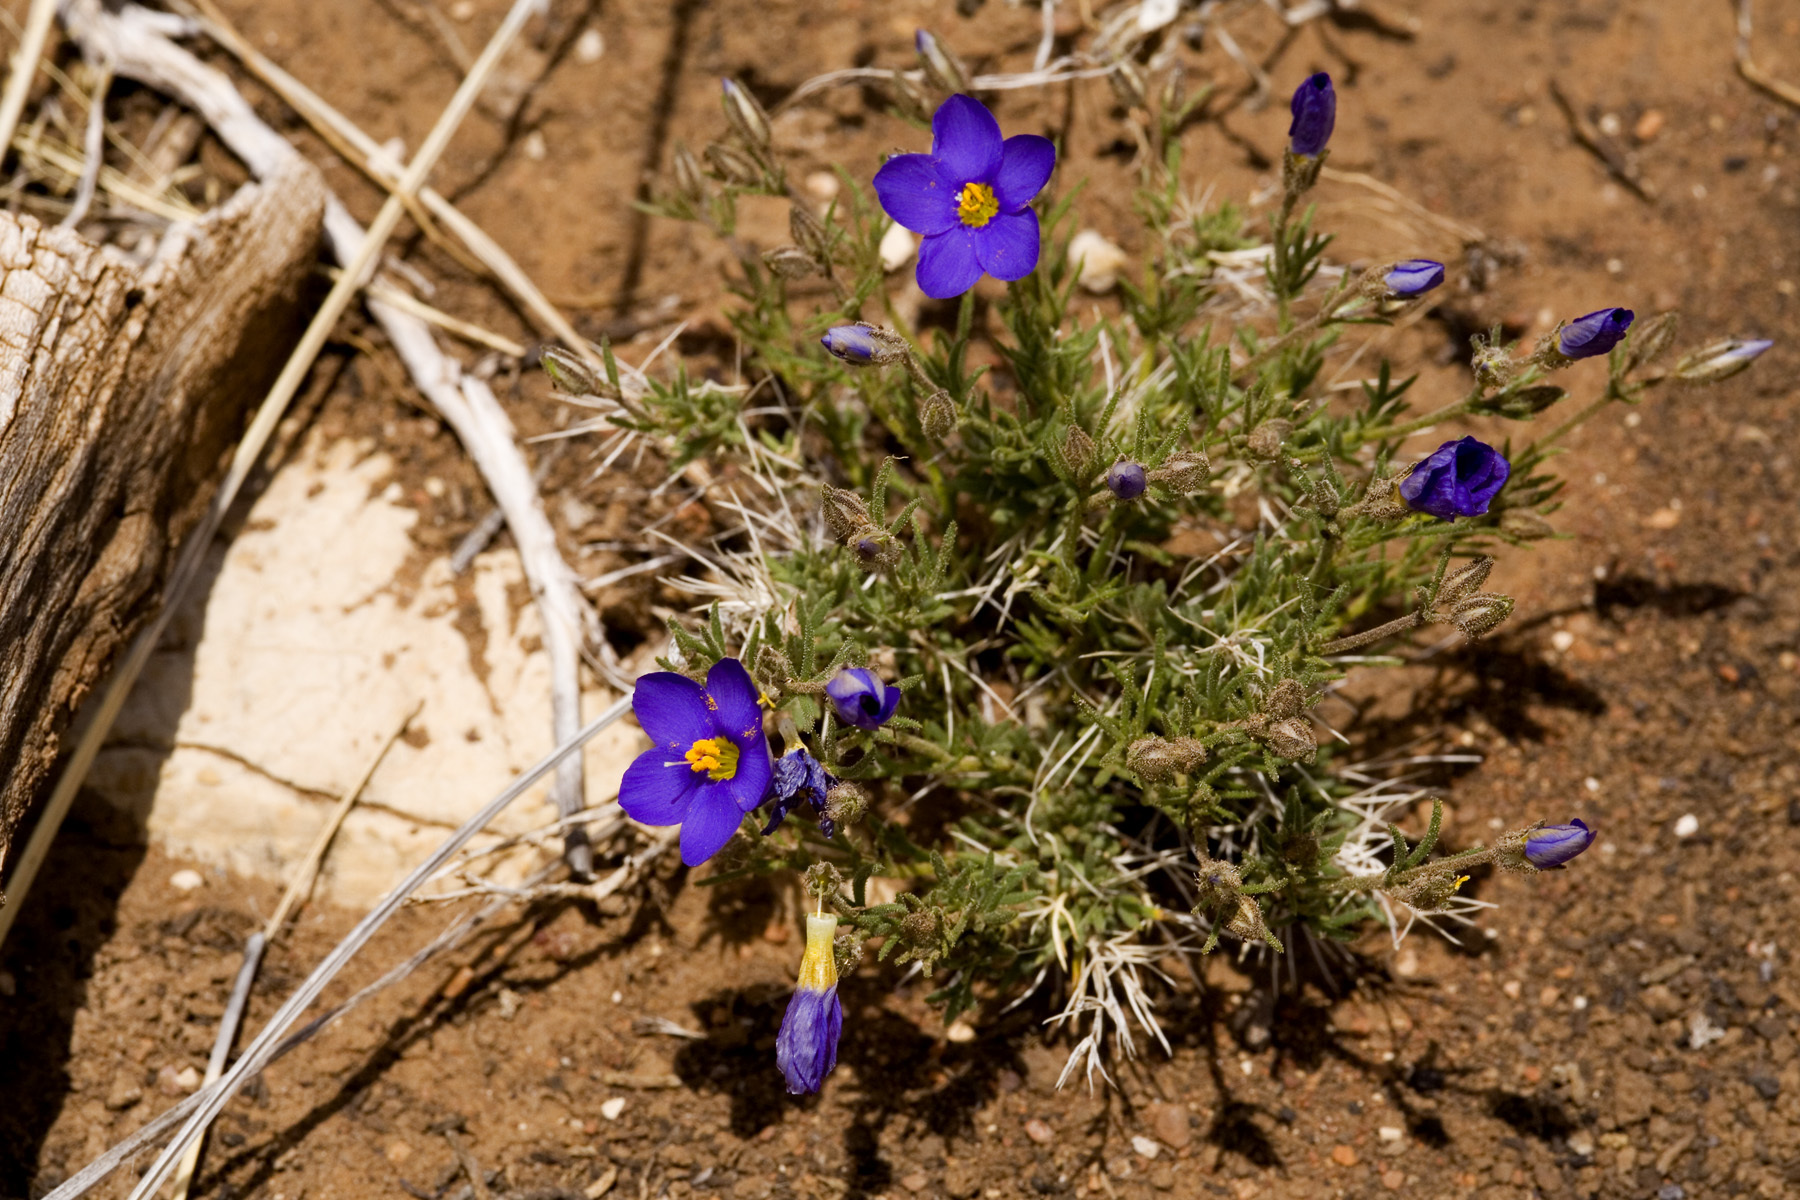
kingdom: Plantae
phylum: Tracheophyta
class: Magnoliopsida
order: Ericales
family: Polemoniaceae
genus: Giliastrum
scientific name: Giliastrum acerosum
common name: Bluebowls
